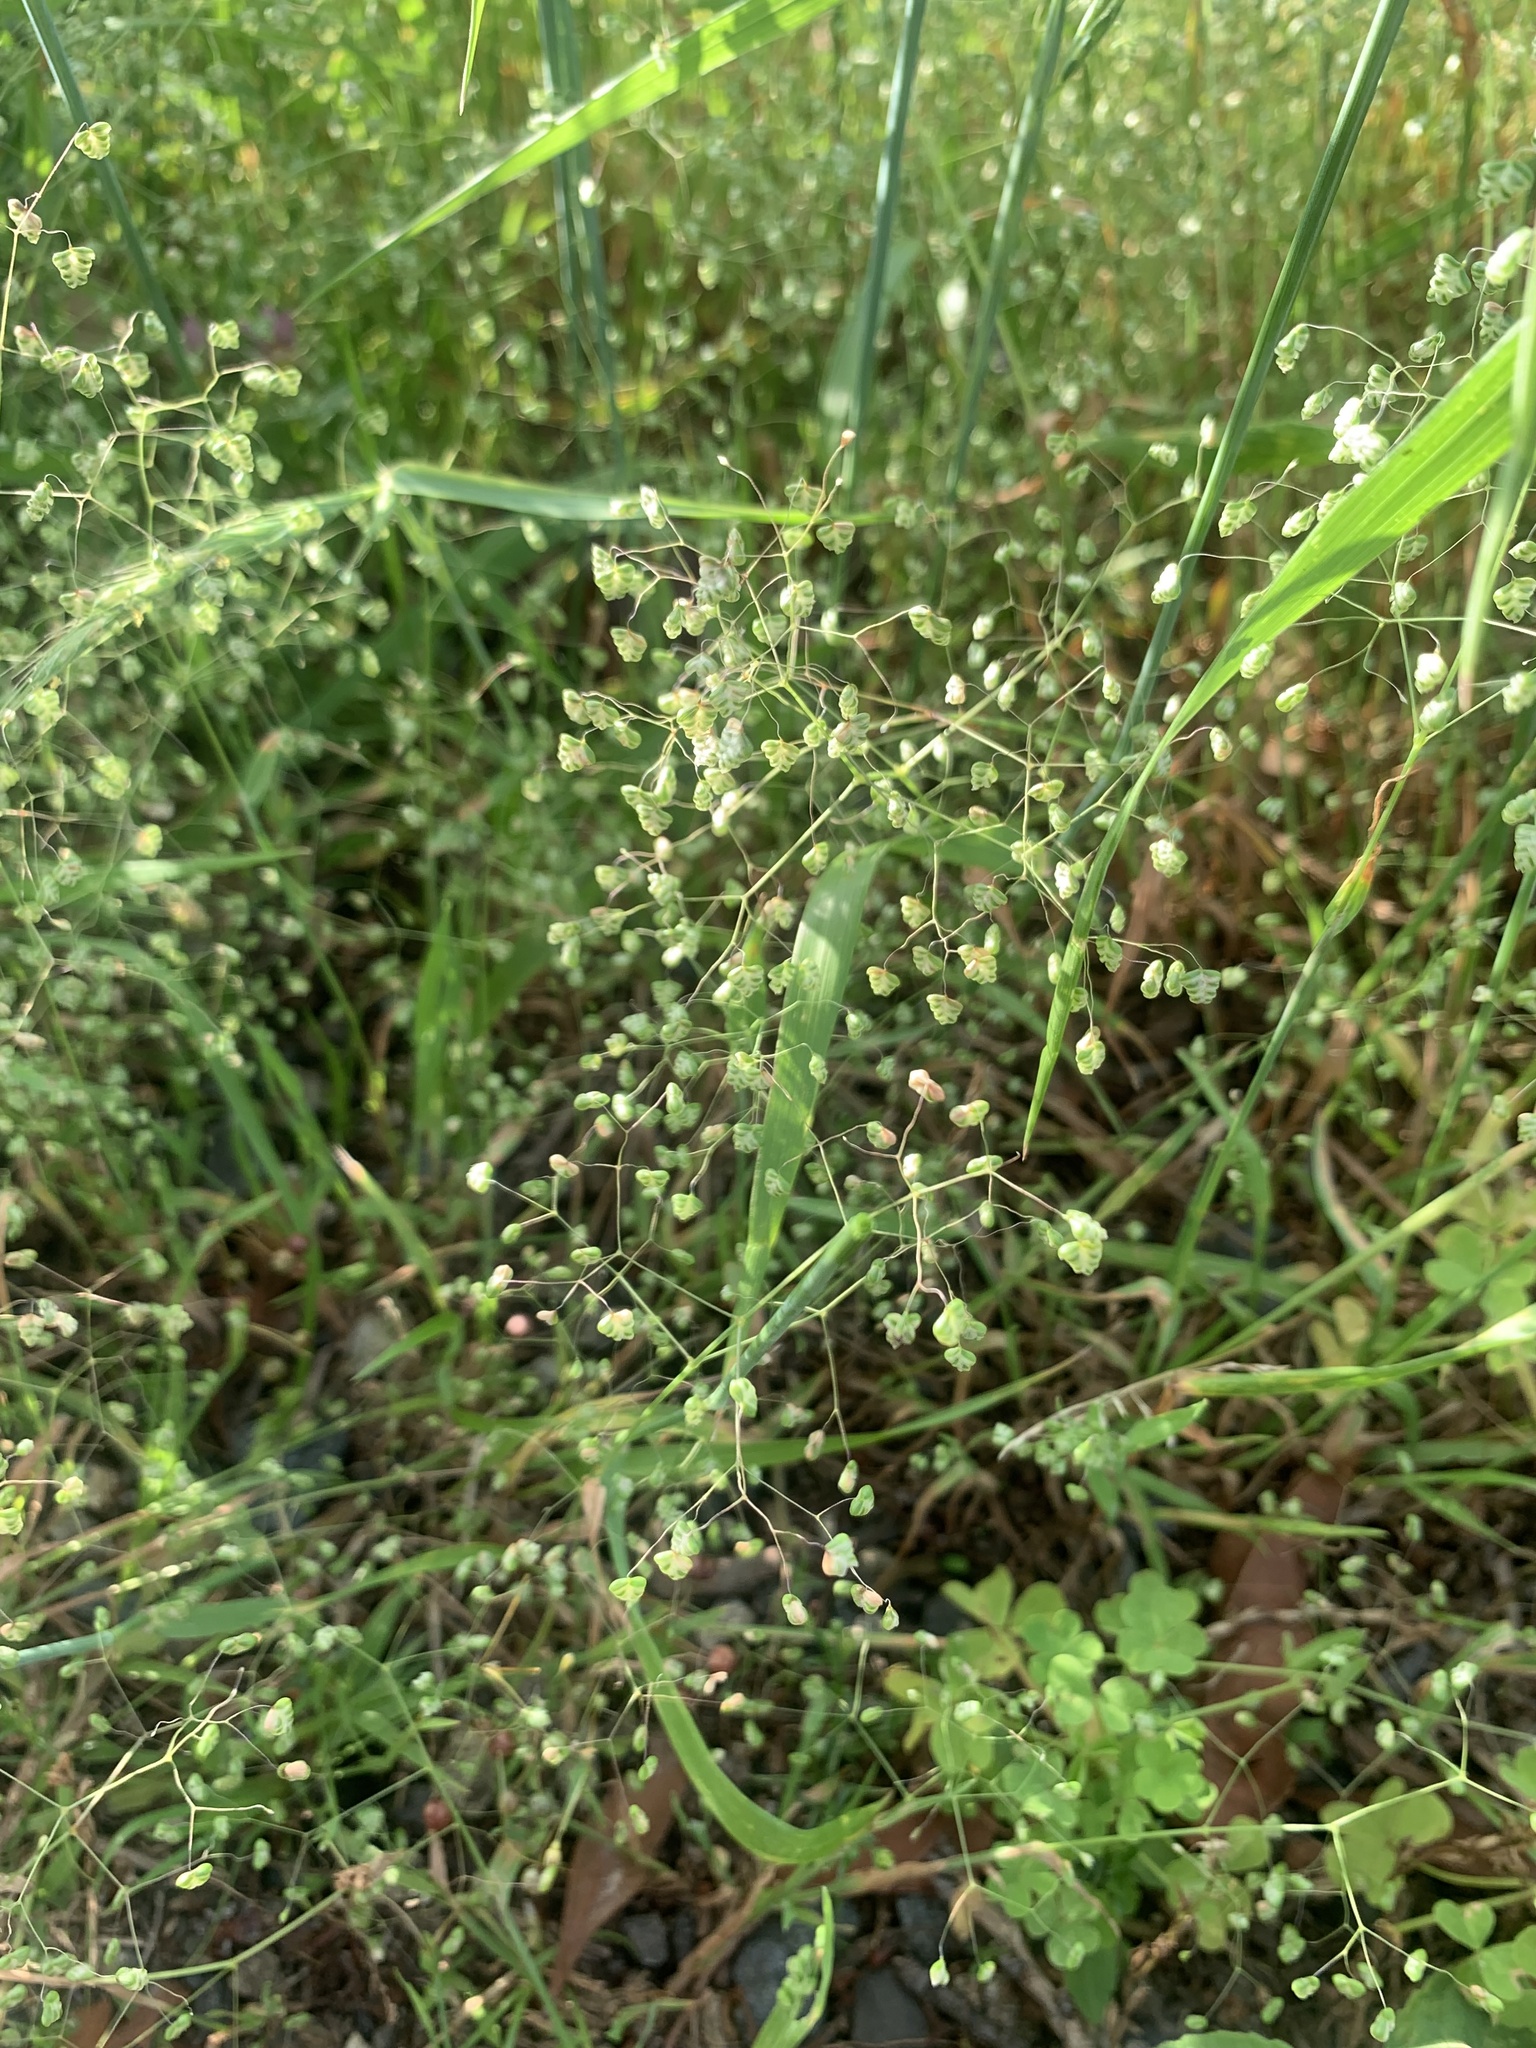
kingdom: Plantae
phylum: Tracheophyta
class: Liliopsida
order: Poales
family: Poaceae
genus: Briza
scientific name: Briza minor
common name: Lesser quaking-grass
